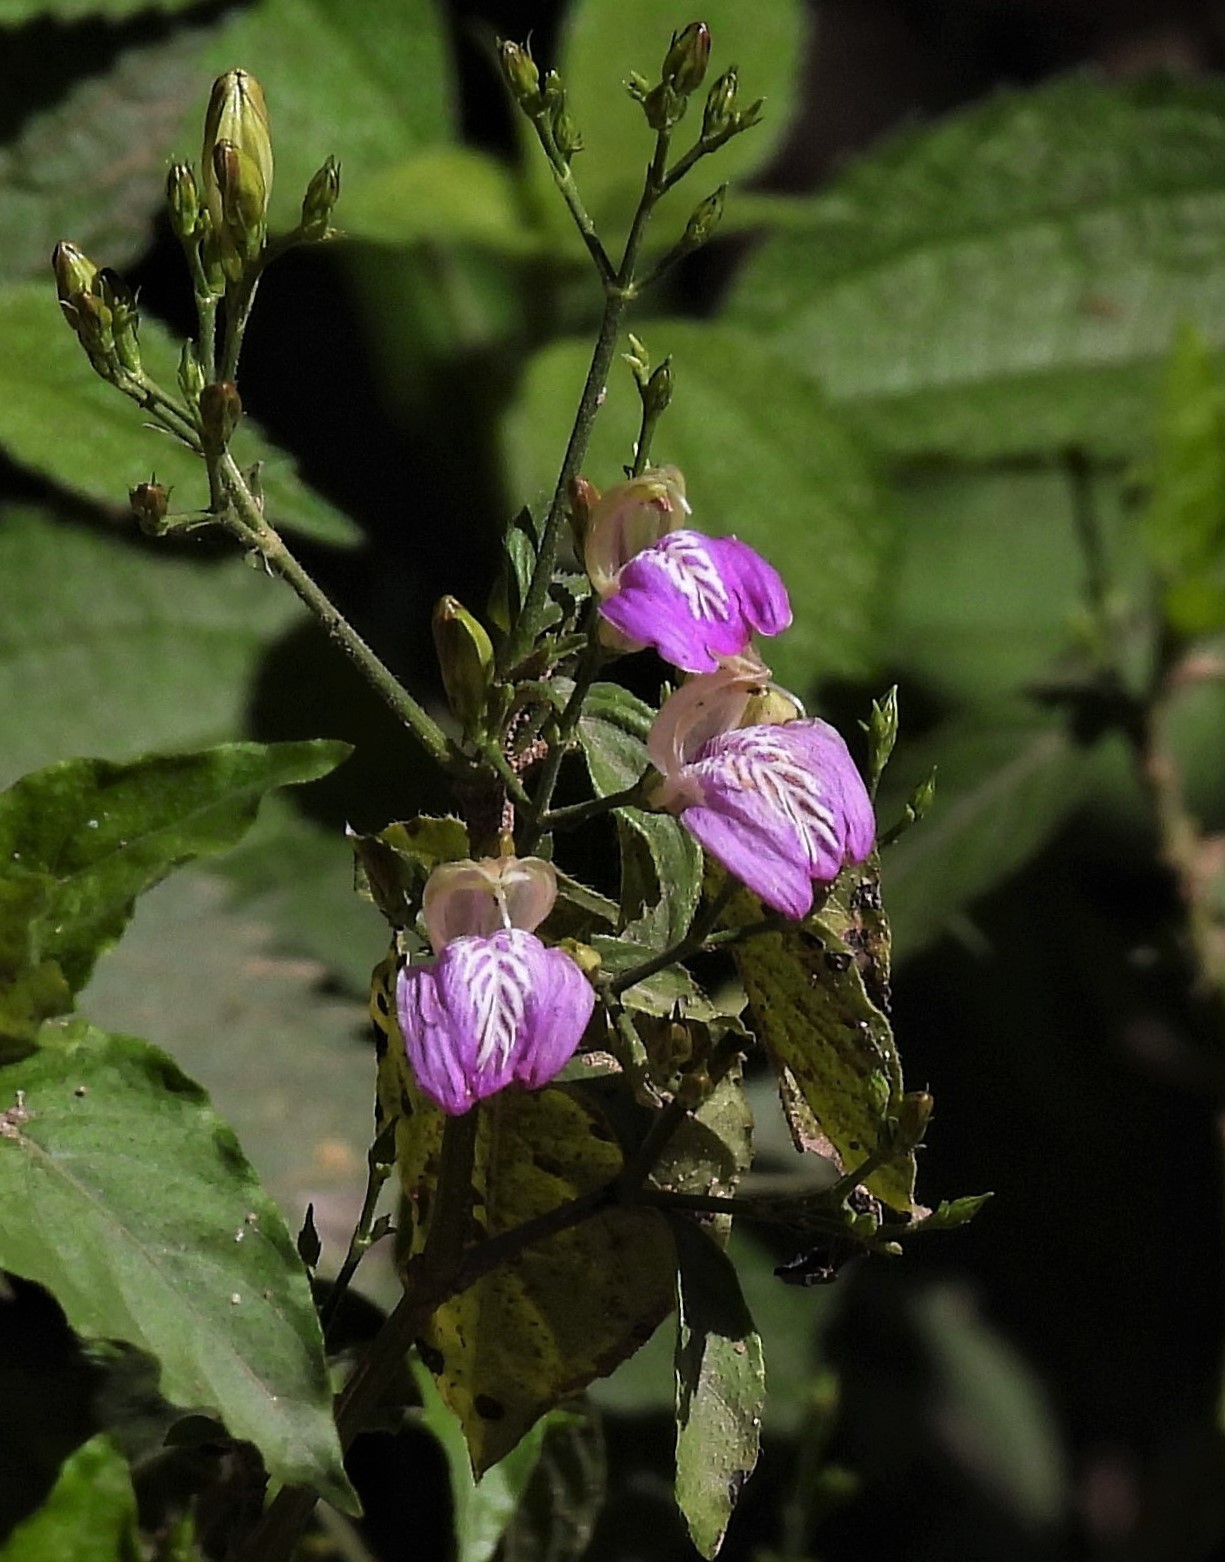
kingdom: Plantae
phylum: Tracheophyta
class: Magnoliopsida
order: Lamiales
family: Acanthaceae
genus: Justicia
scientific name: Justicia kuntzei
